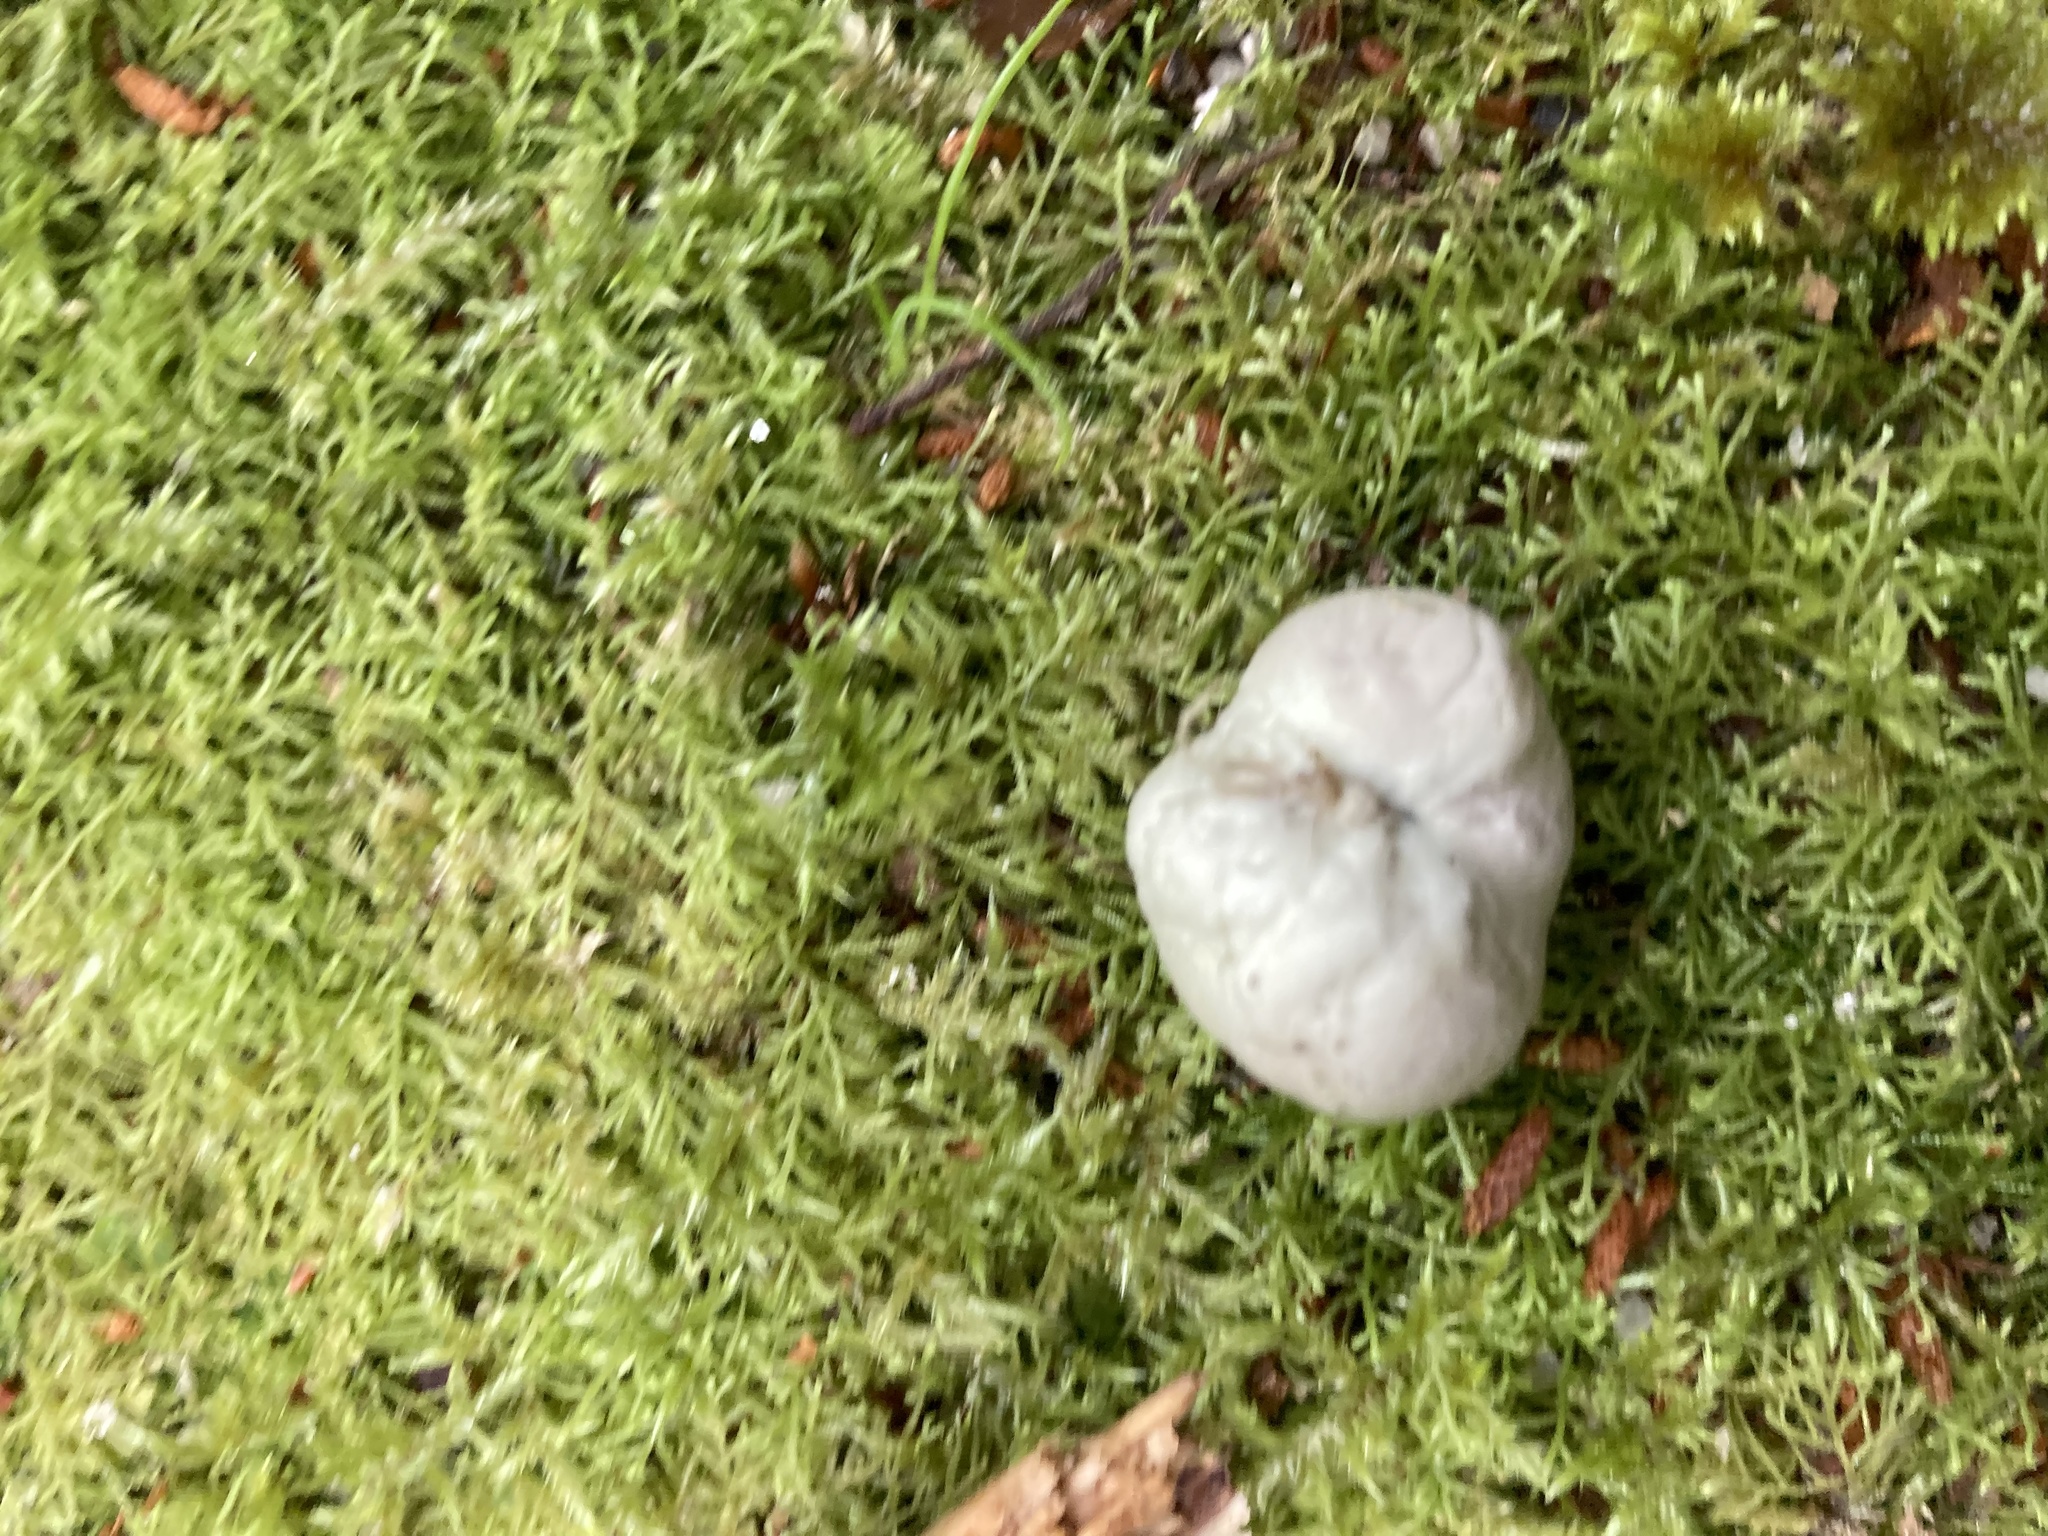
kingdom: Fungi
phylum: Basidiomycota
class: Agaricomycetes
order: Boletales
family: Boletaceae
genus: Leccinum
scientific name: Leccinum pachyderme
